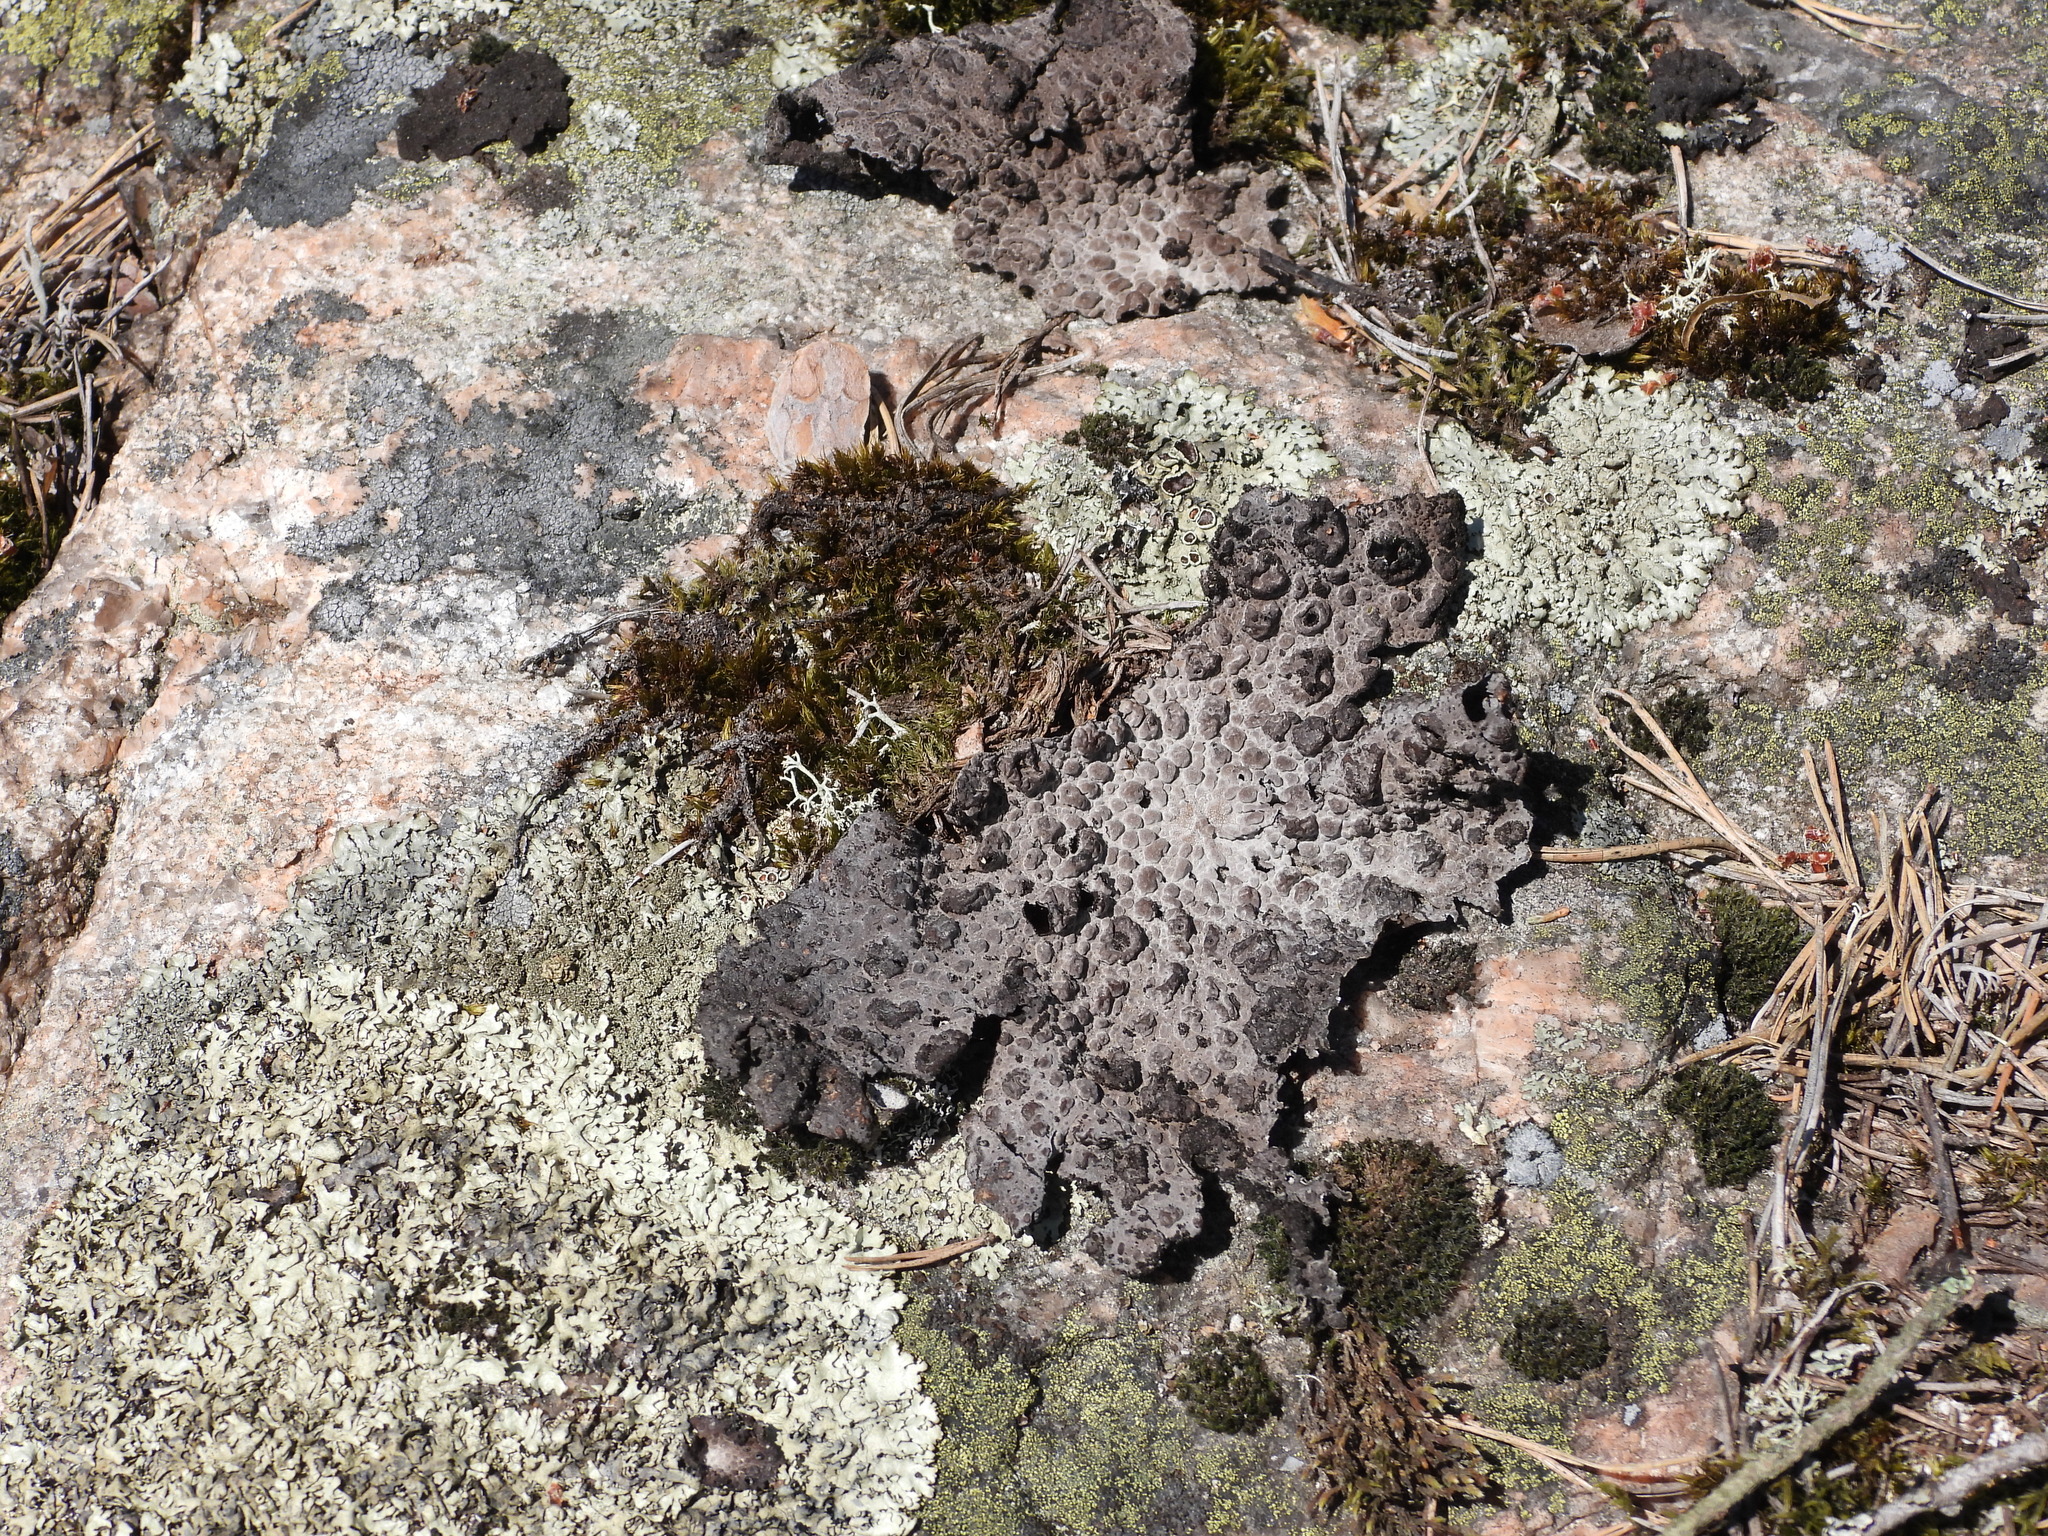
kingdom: Fungi
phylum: Ascomycota
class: Lecanoromycetes
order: Umbilicariales
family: Umbilicariaceae
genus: Lasallia
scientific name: Lasallia pustulata
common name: Blistered toadskin lichen
